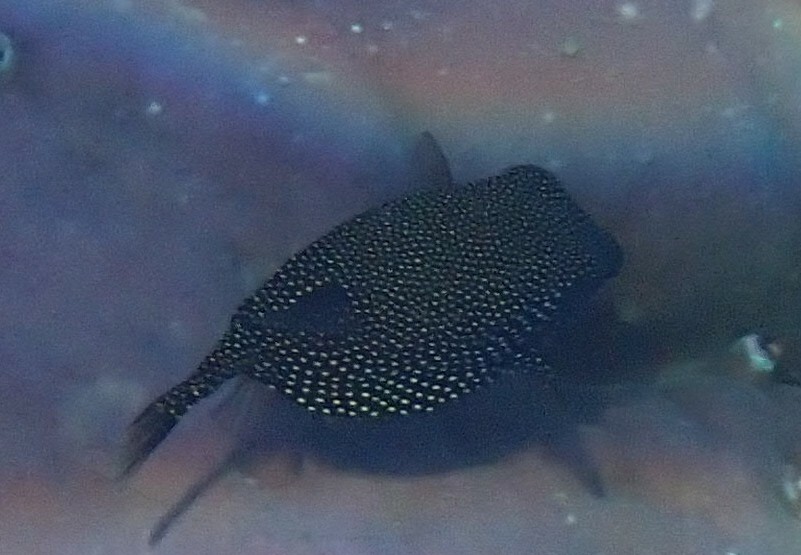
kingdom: Animalia
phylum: Chordata
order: Tetraodontiformes
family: Ostraciidae
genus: Ostracion
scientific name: Ostracion meleagris
